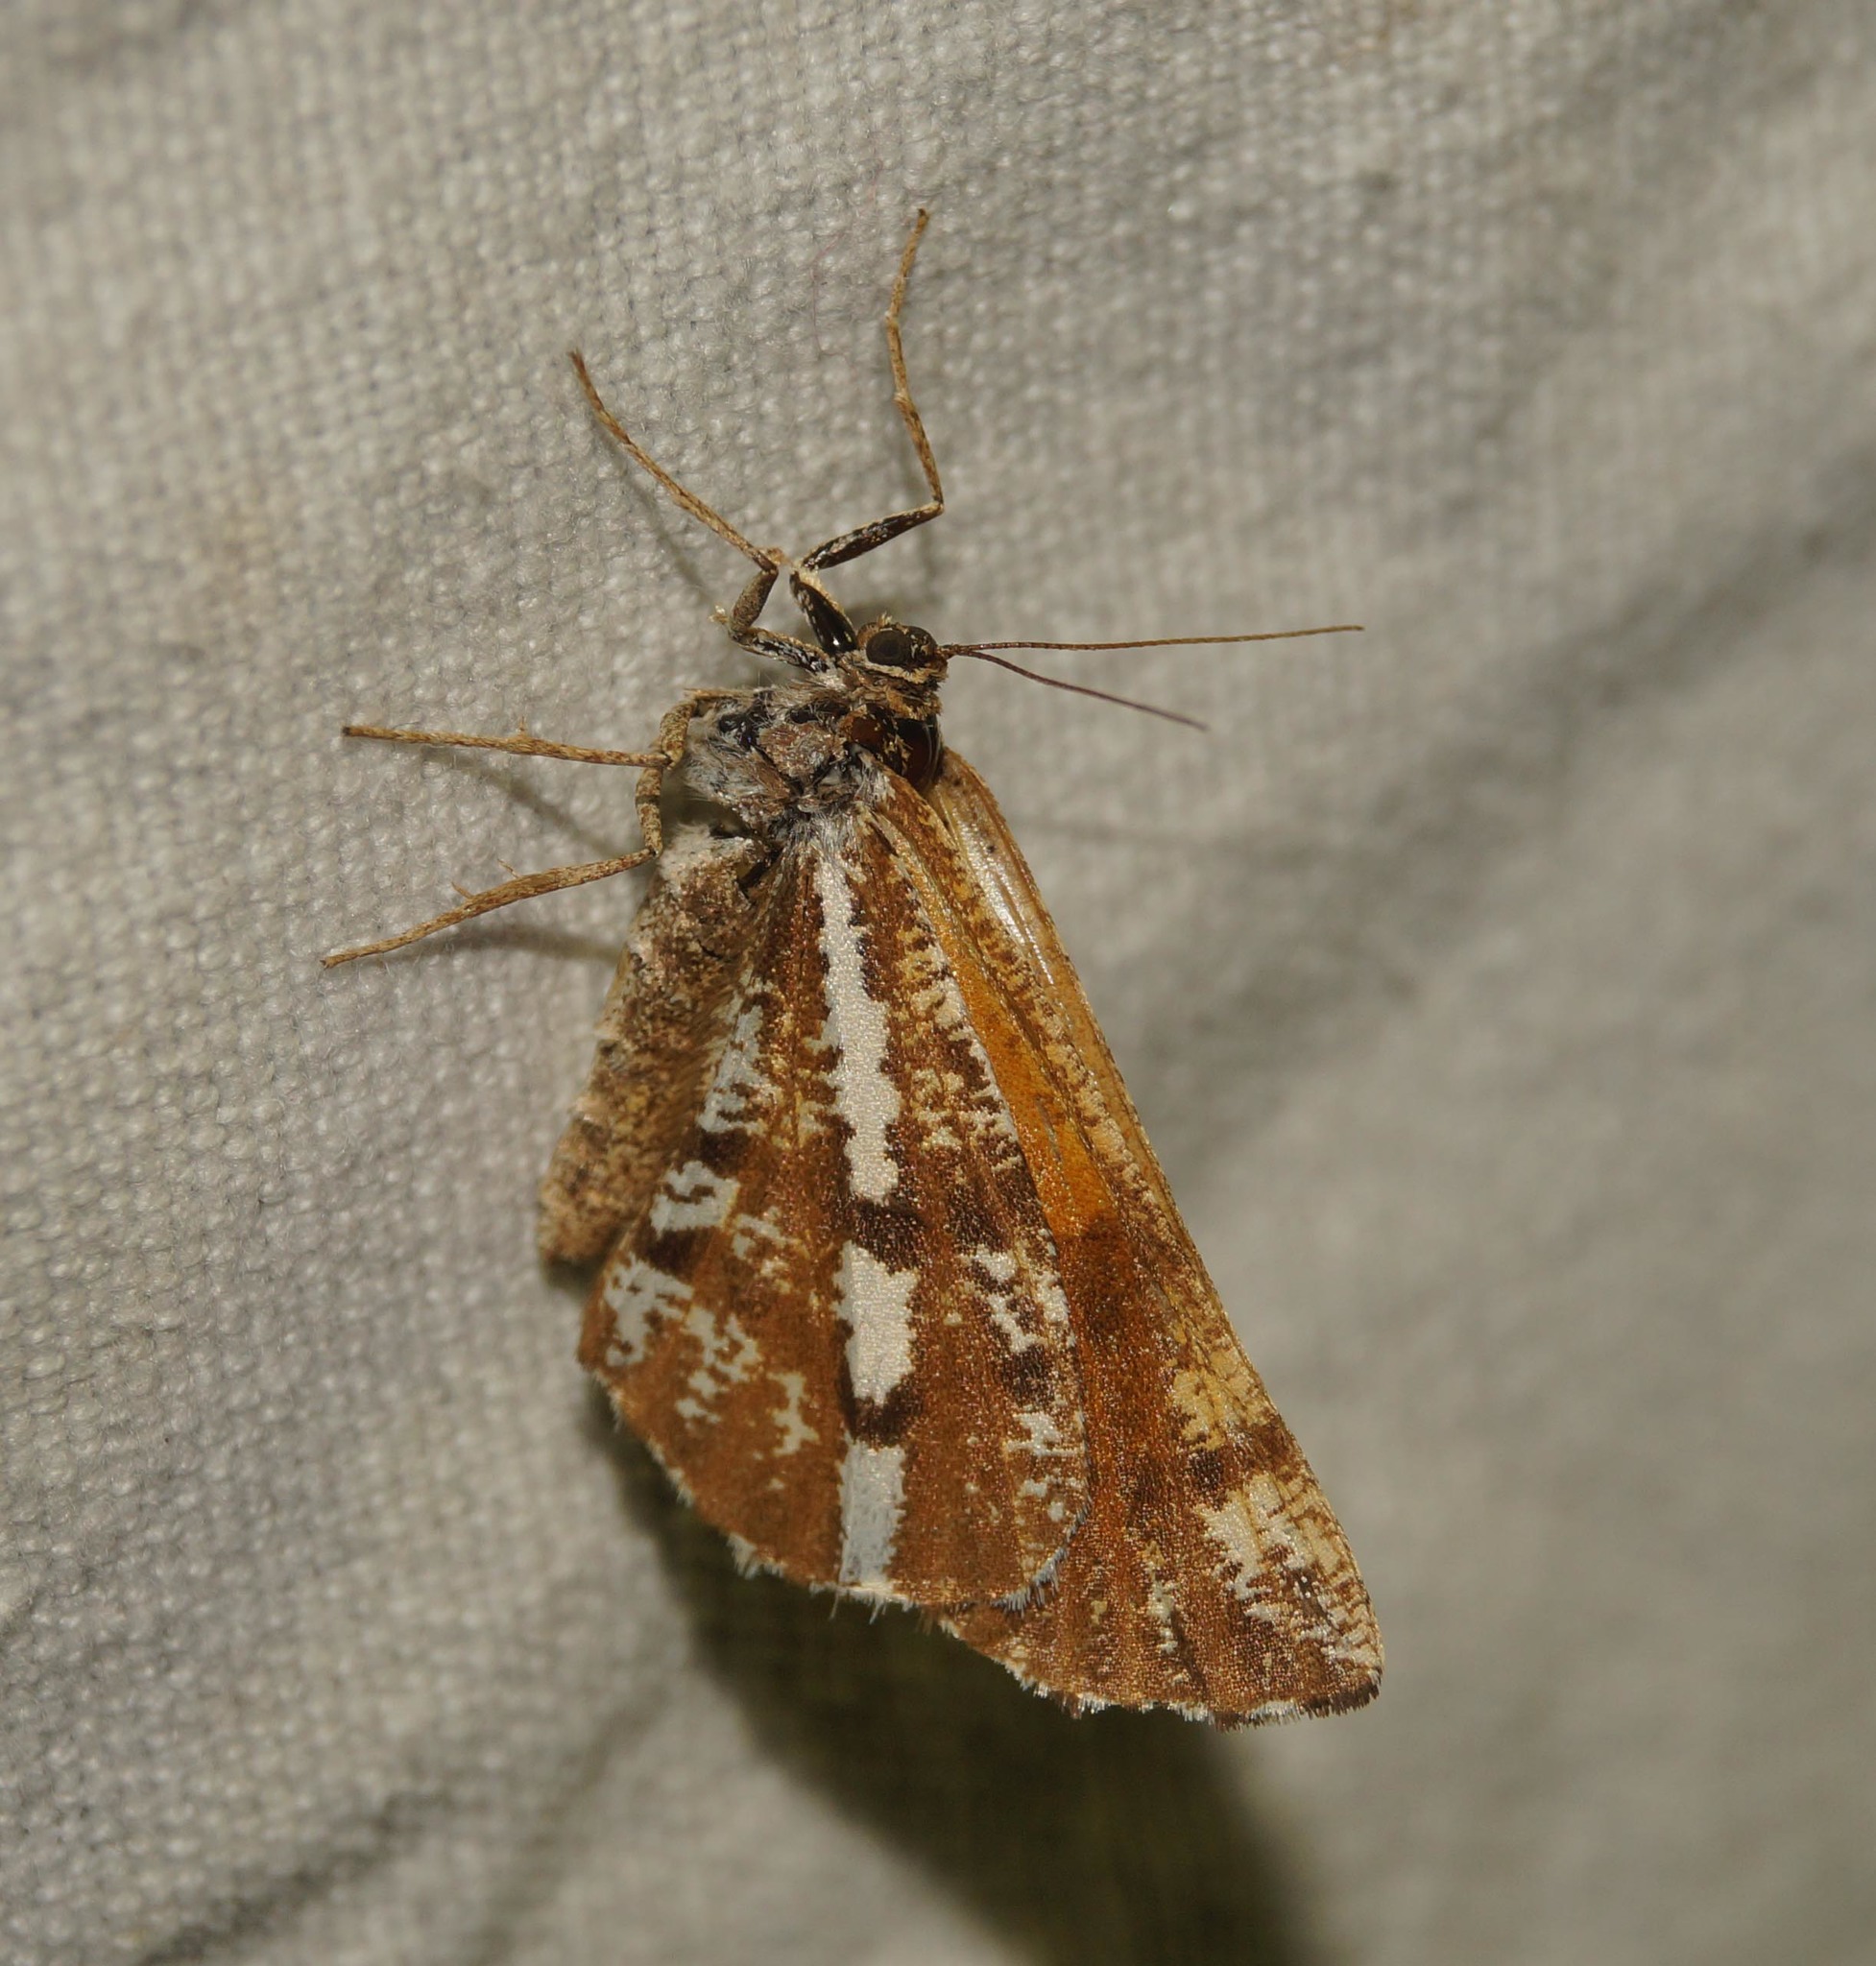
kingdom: Animalia
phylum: Arthropoda
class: Insecta
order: Lepidoptera
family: Geometridae
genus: Bupalus
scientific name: Bupalus piniaria
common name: Bordered white
